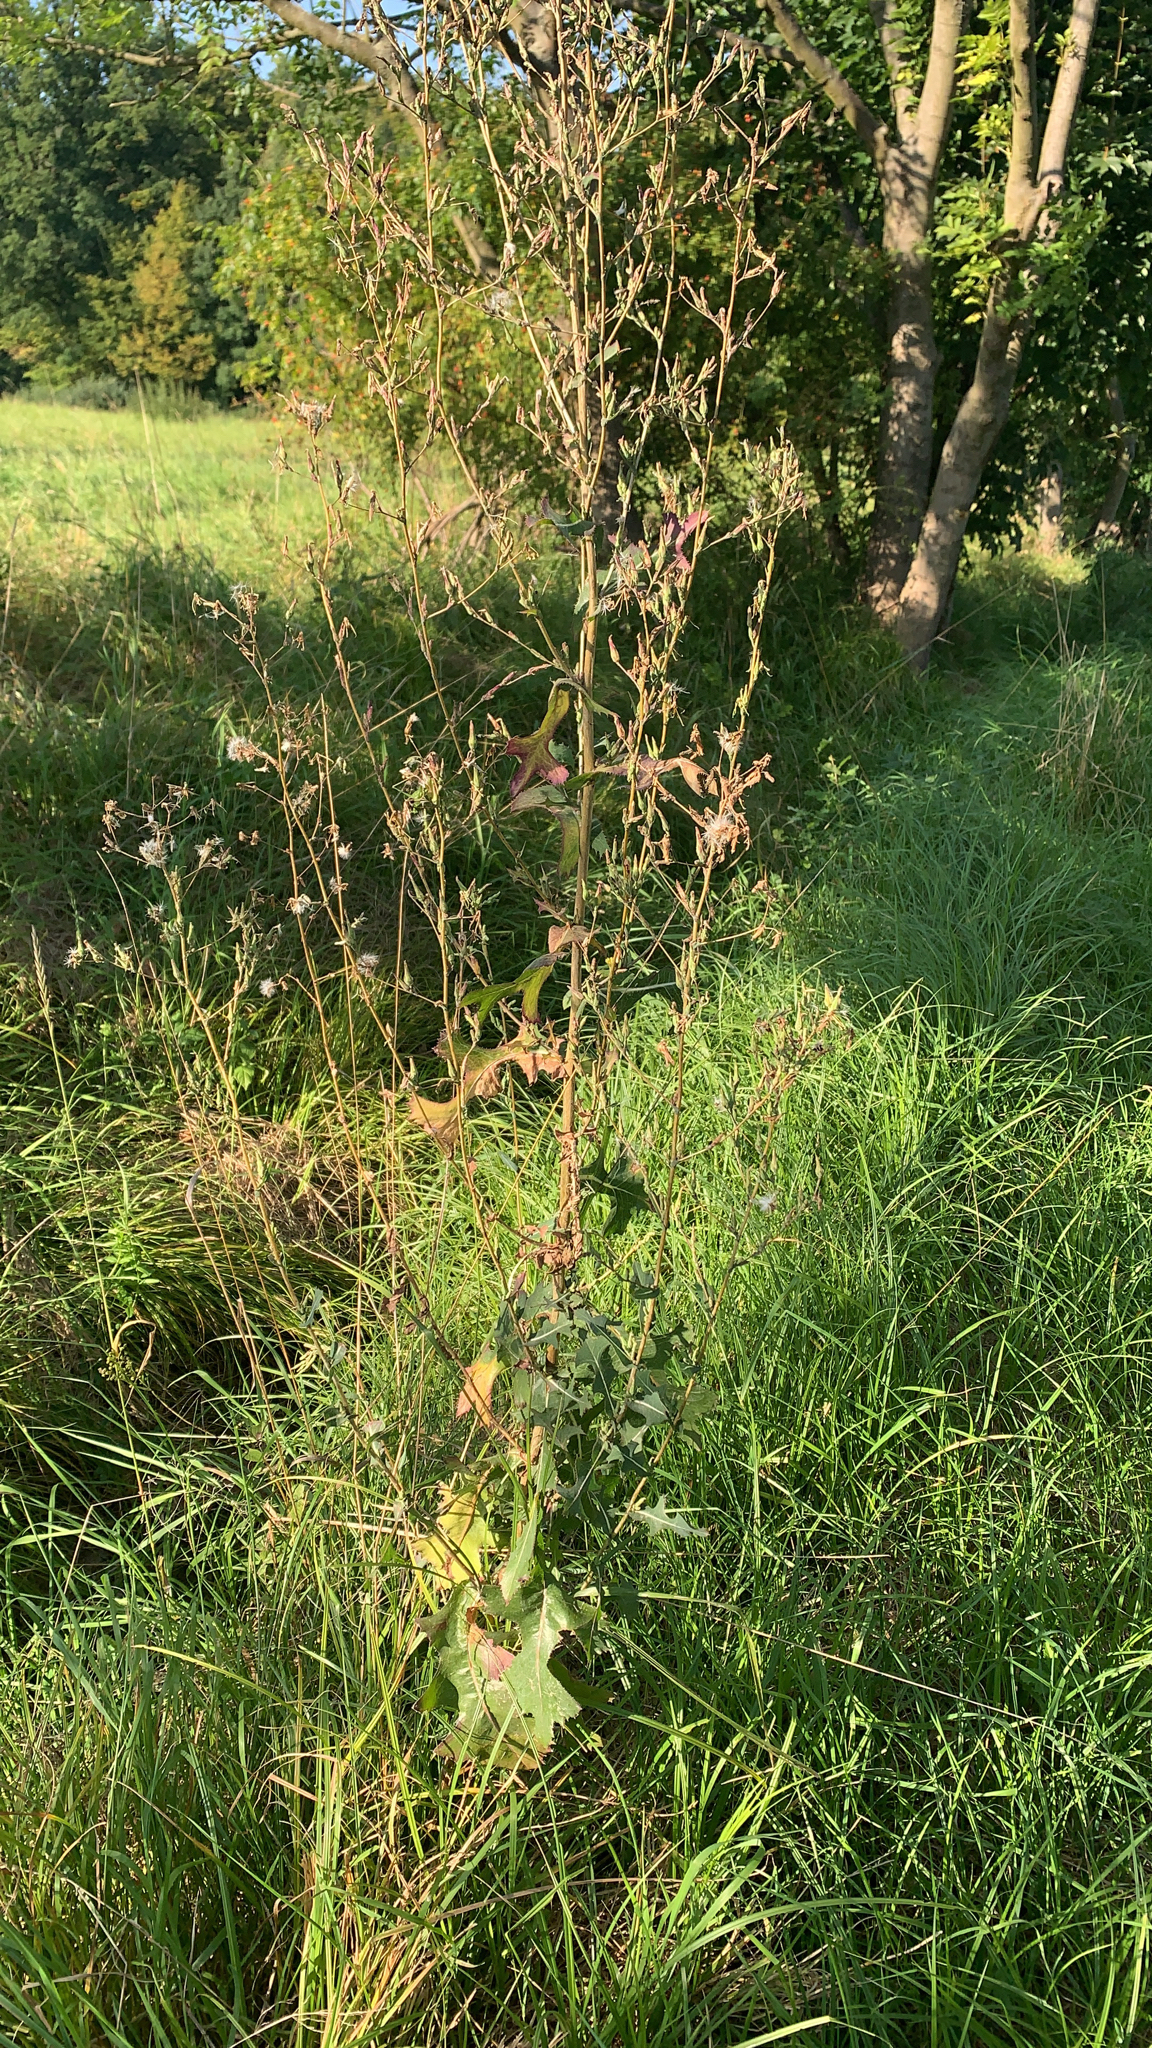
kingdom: Plantae
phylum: Tracheophyta
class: Magnoliopsida
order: Asterales
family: Asteraceae
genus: Lactuca
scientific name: Lactuca serriola
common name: Prickly lettuce
